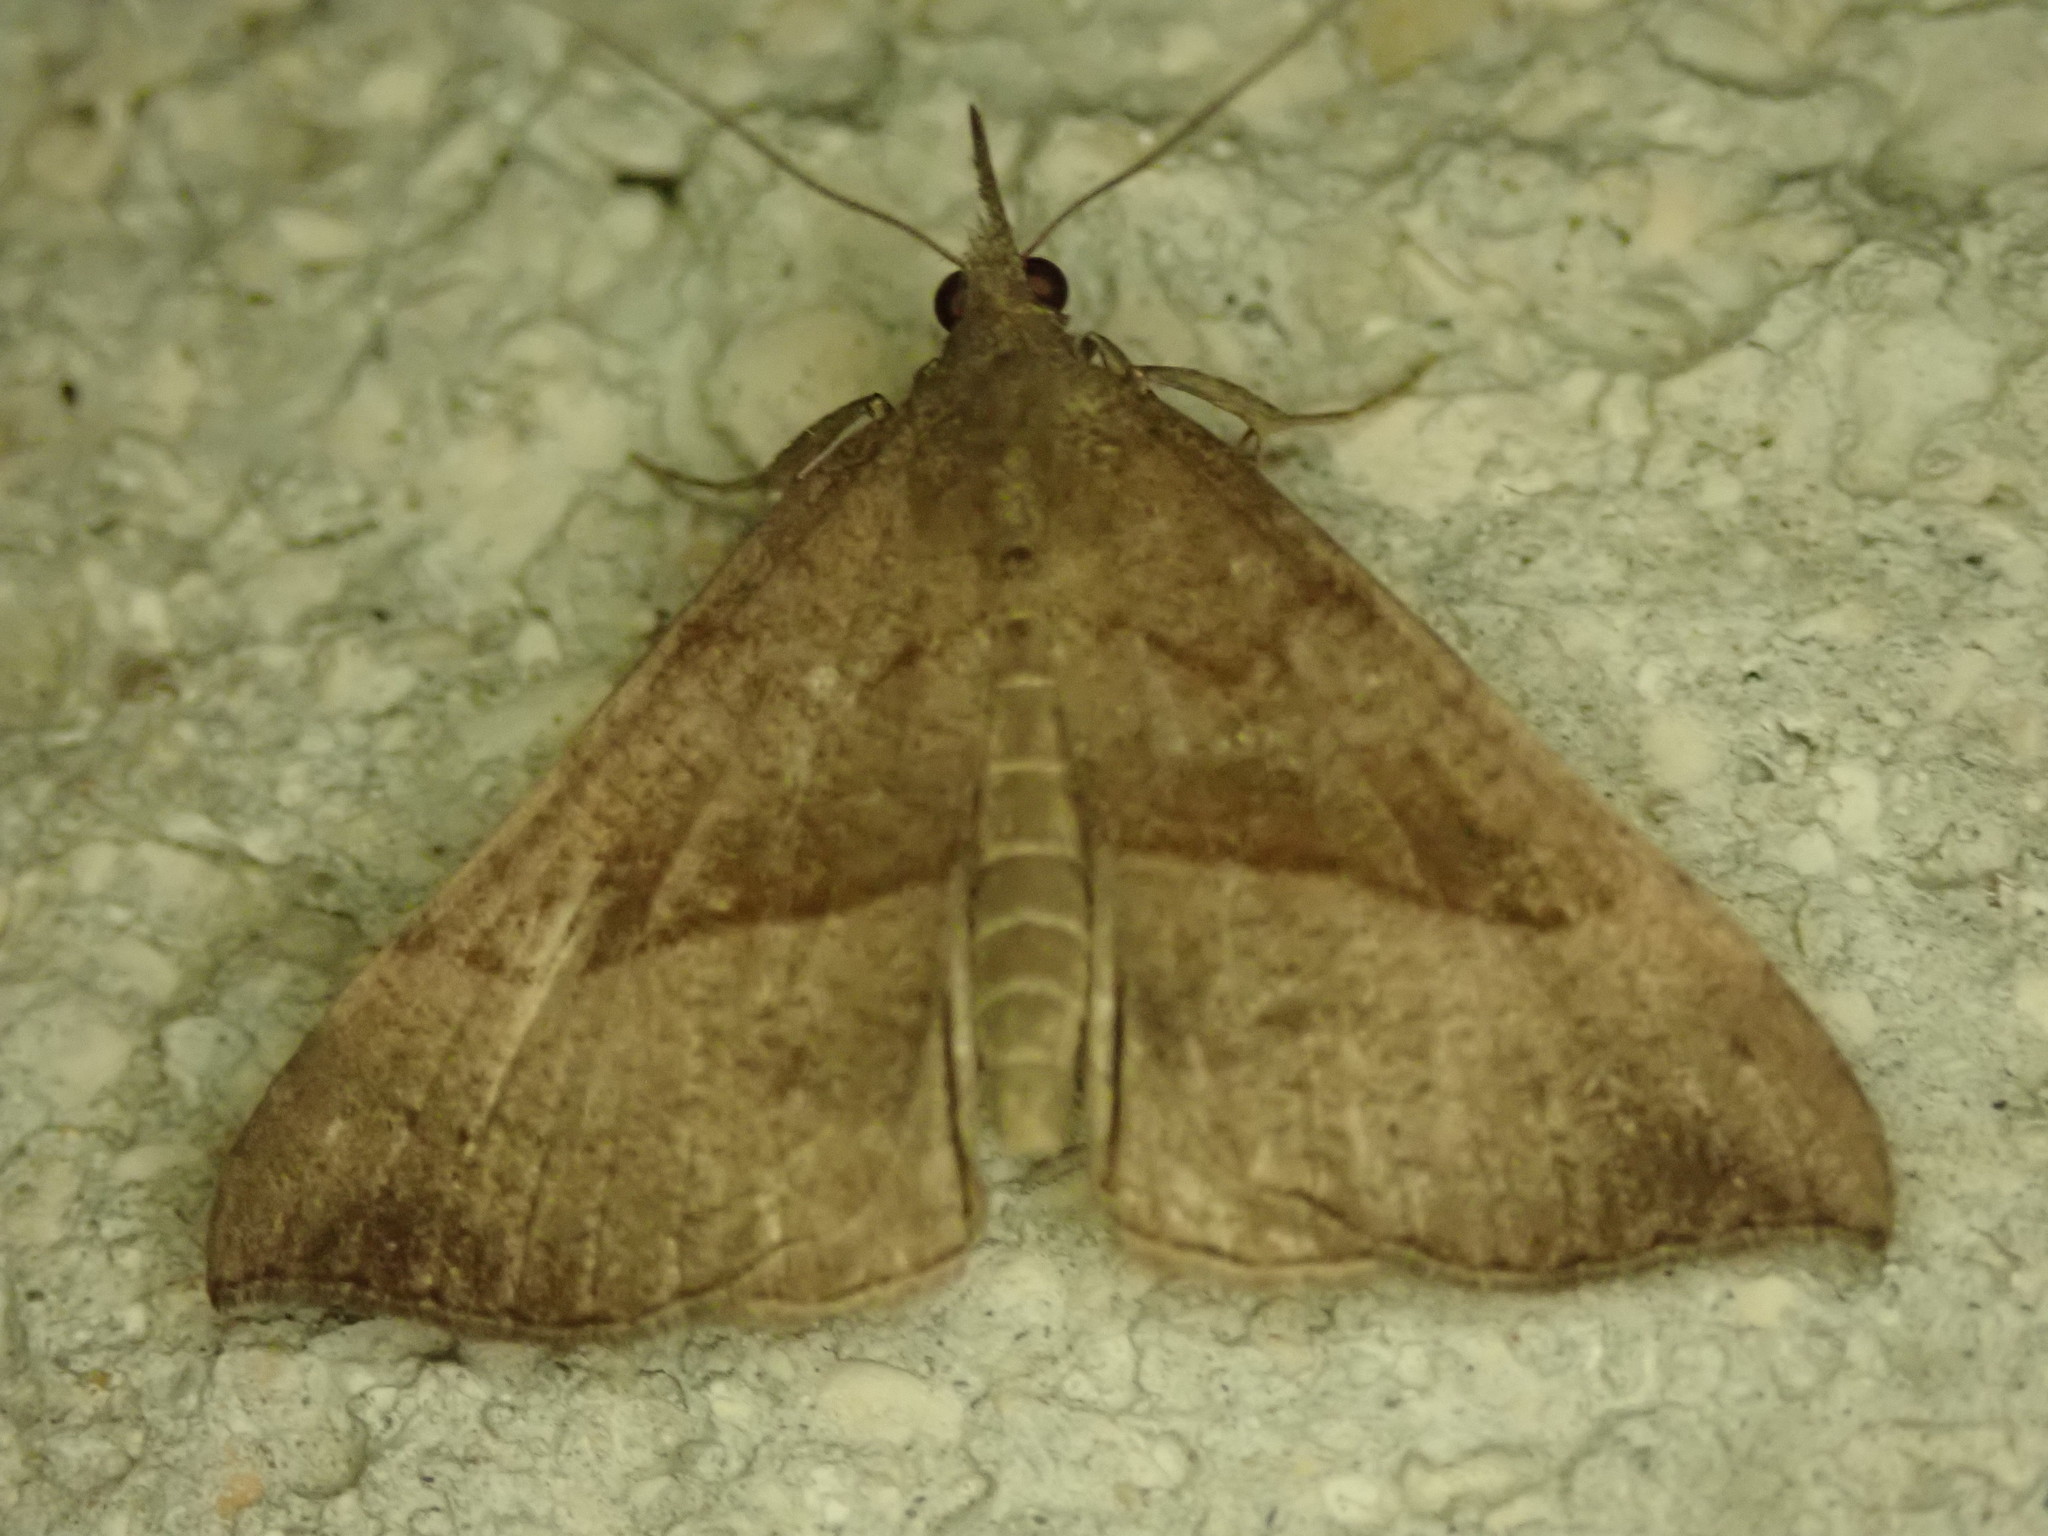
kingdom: Animalia
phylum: Arthropoda
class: Insecta
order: Lepidoptera
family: Erebidae
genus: Hypena
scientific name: Hypena proboscidalis
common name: Snout
